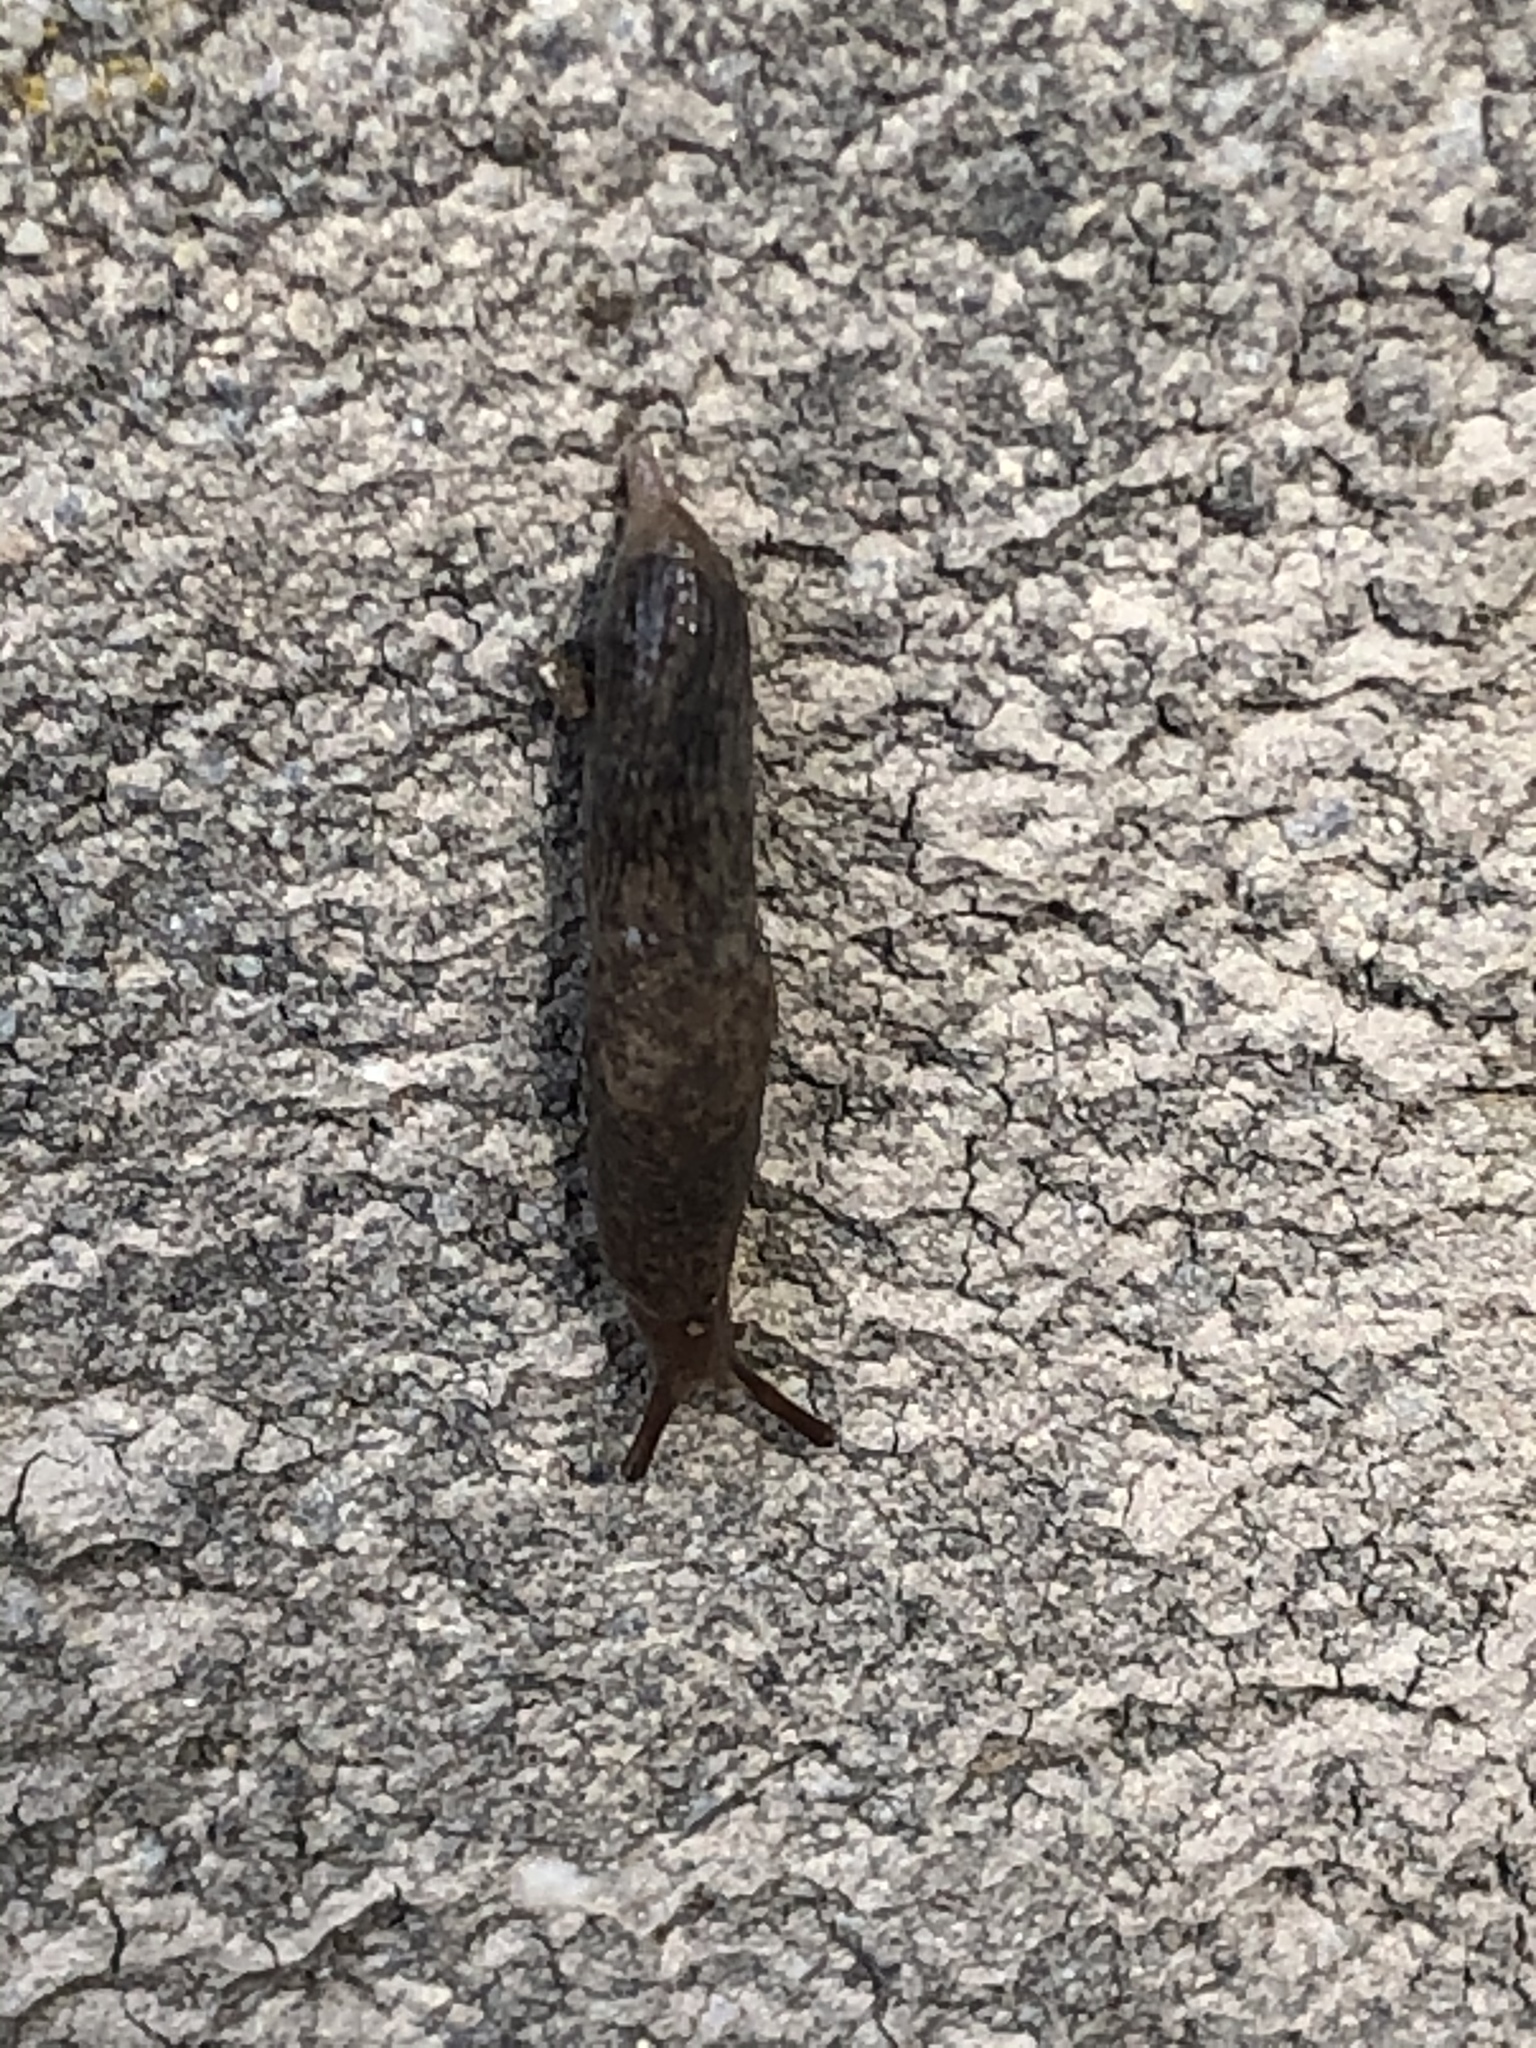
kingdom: Animalia
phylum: Mollusca
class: Gastropoda
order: Stylommatophora
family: Agriolimacidae
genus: Deroceras
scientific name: Deroceras reticulatum
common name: Gray field slug
